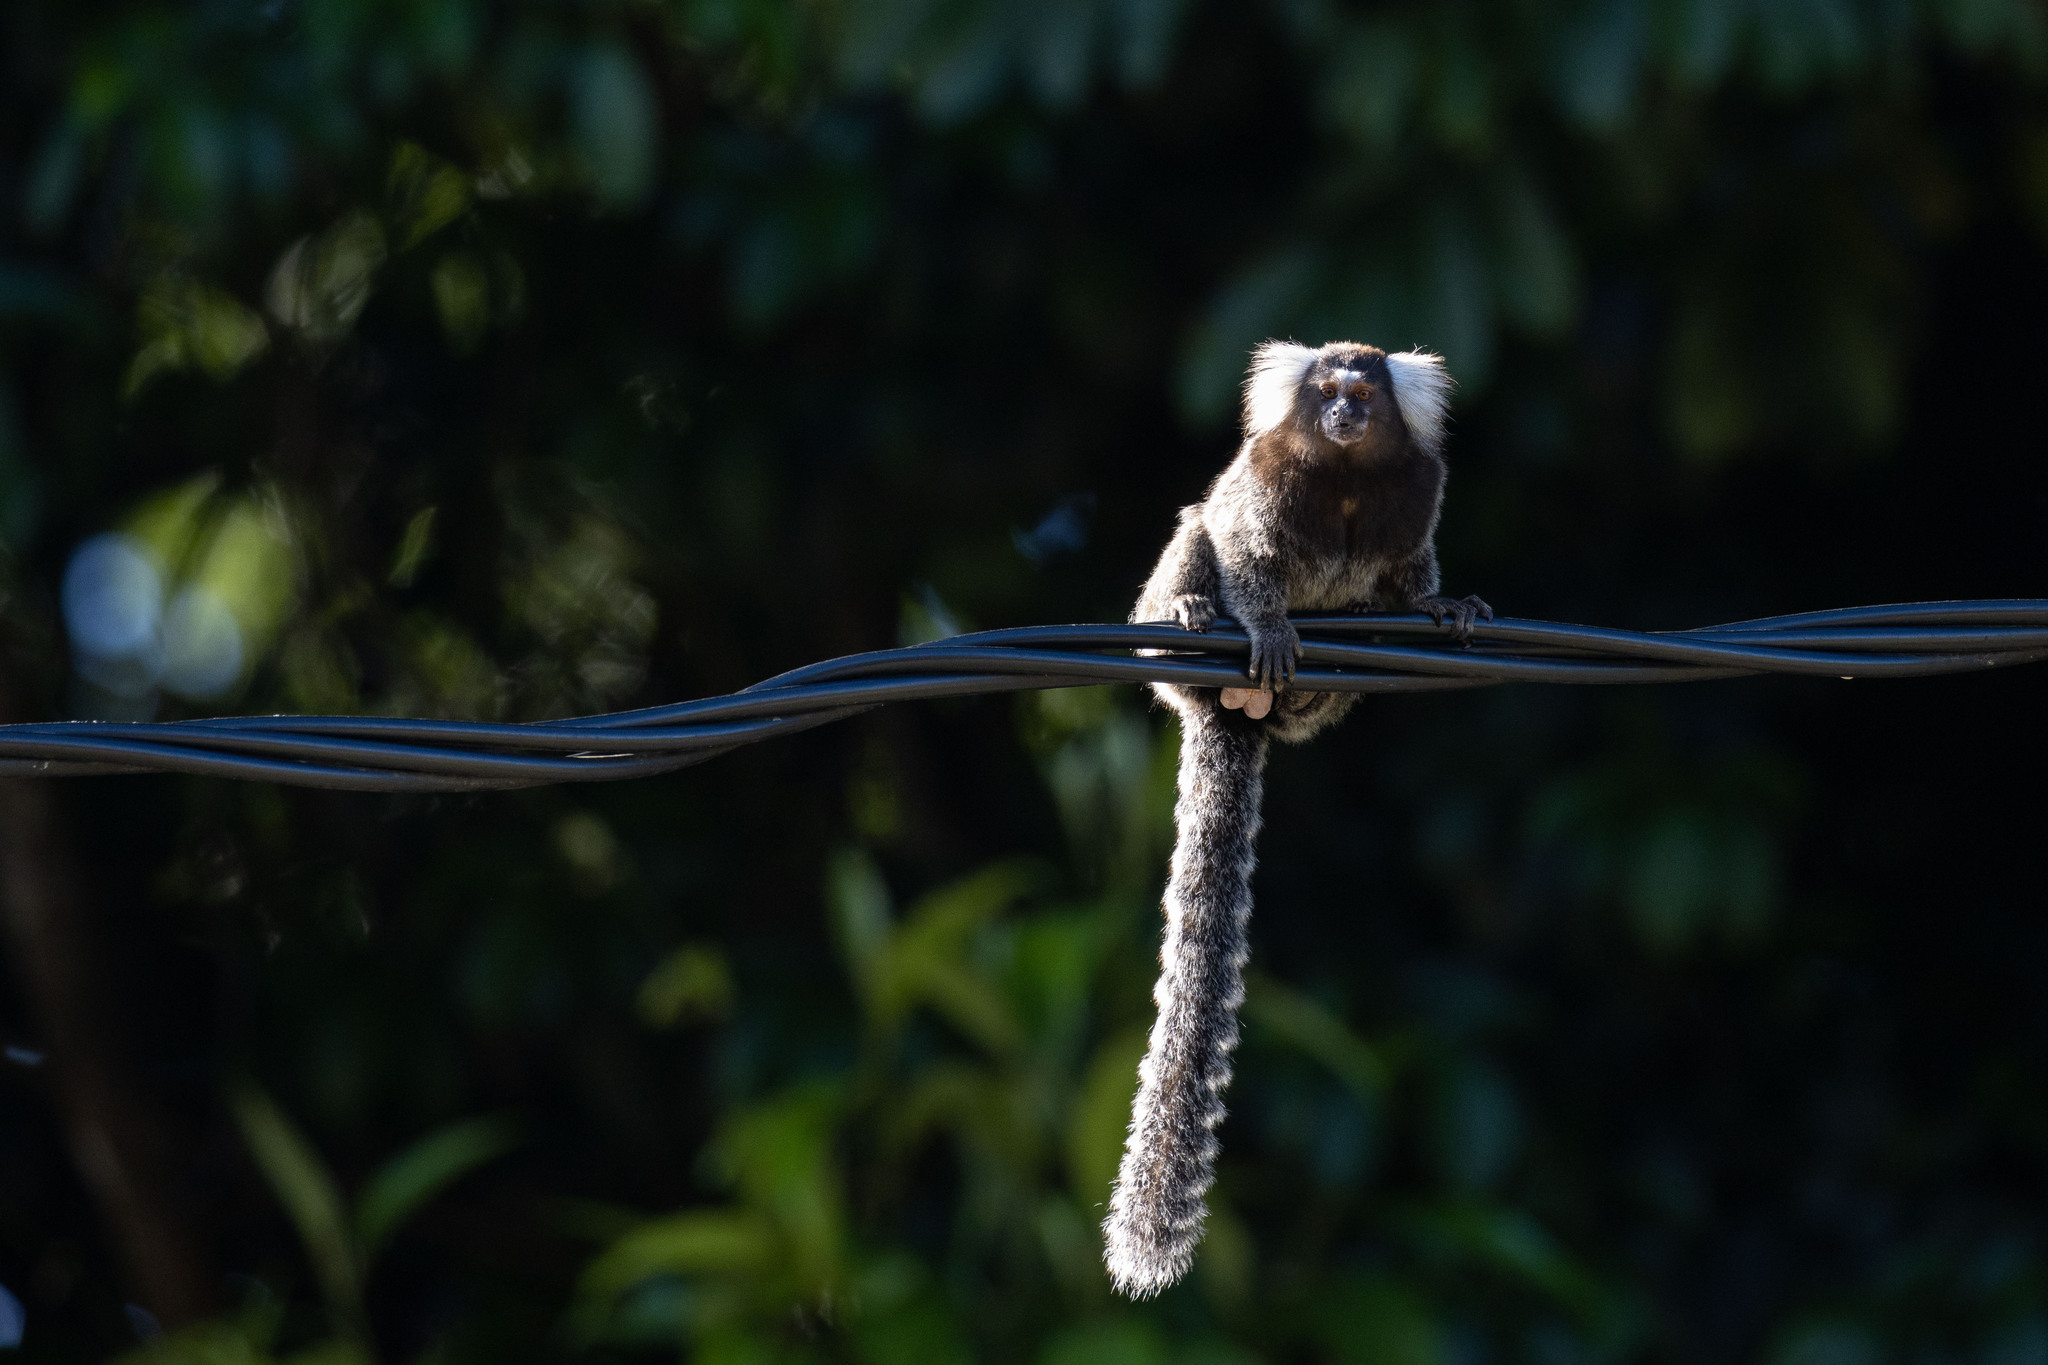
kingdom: Animalia
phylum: Chordata
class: Mammalia
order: Primates
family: Callitrichidae
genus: Callithrix
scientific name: Callithrix jacchus
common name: Common marmoset
